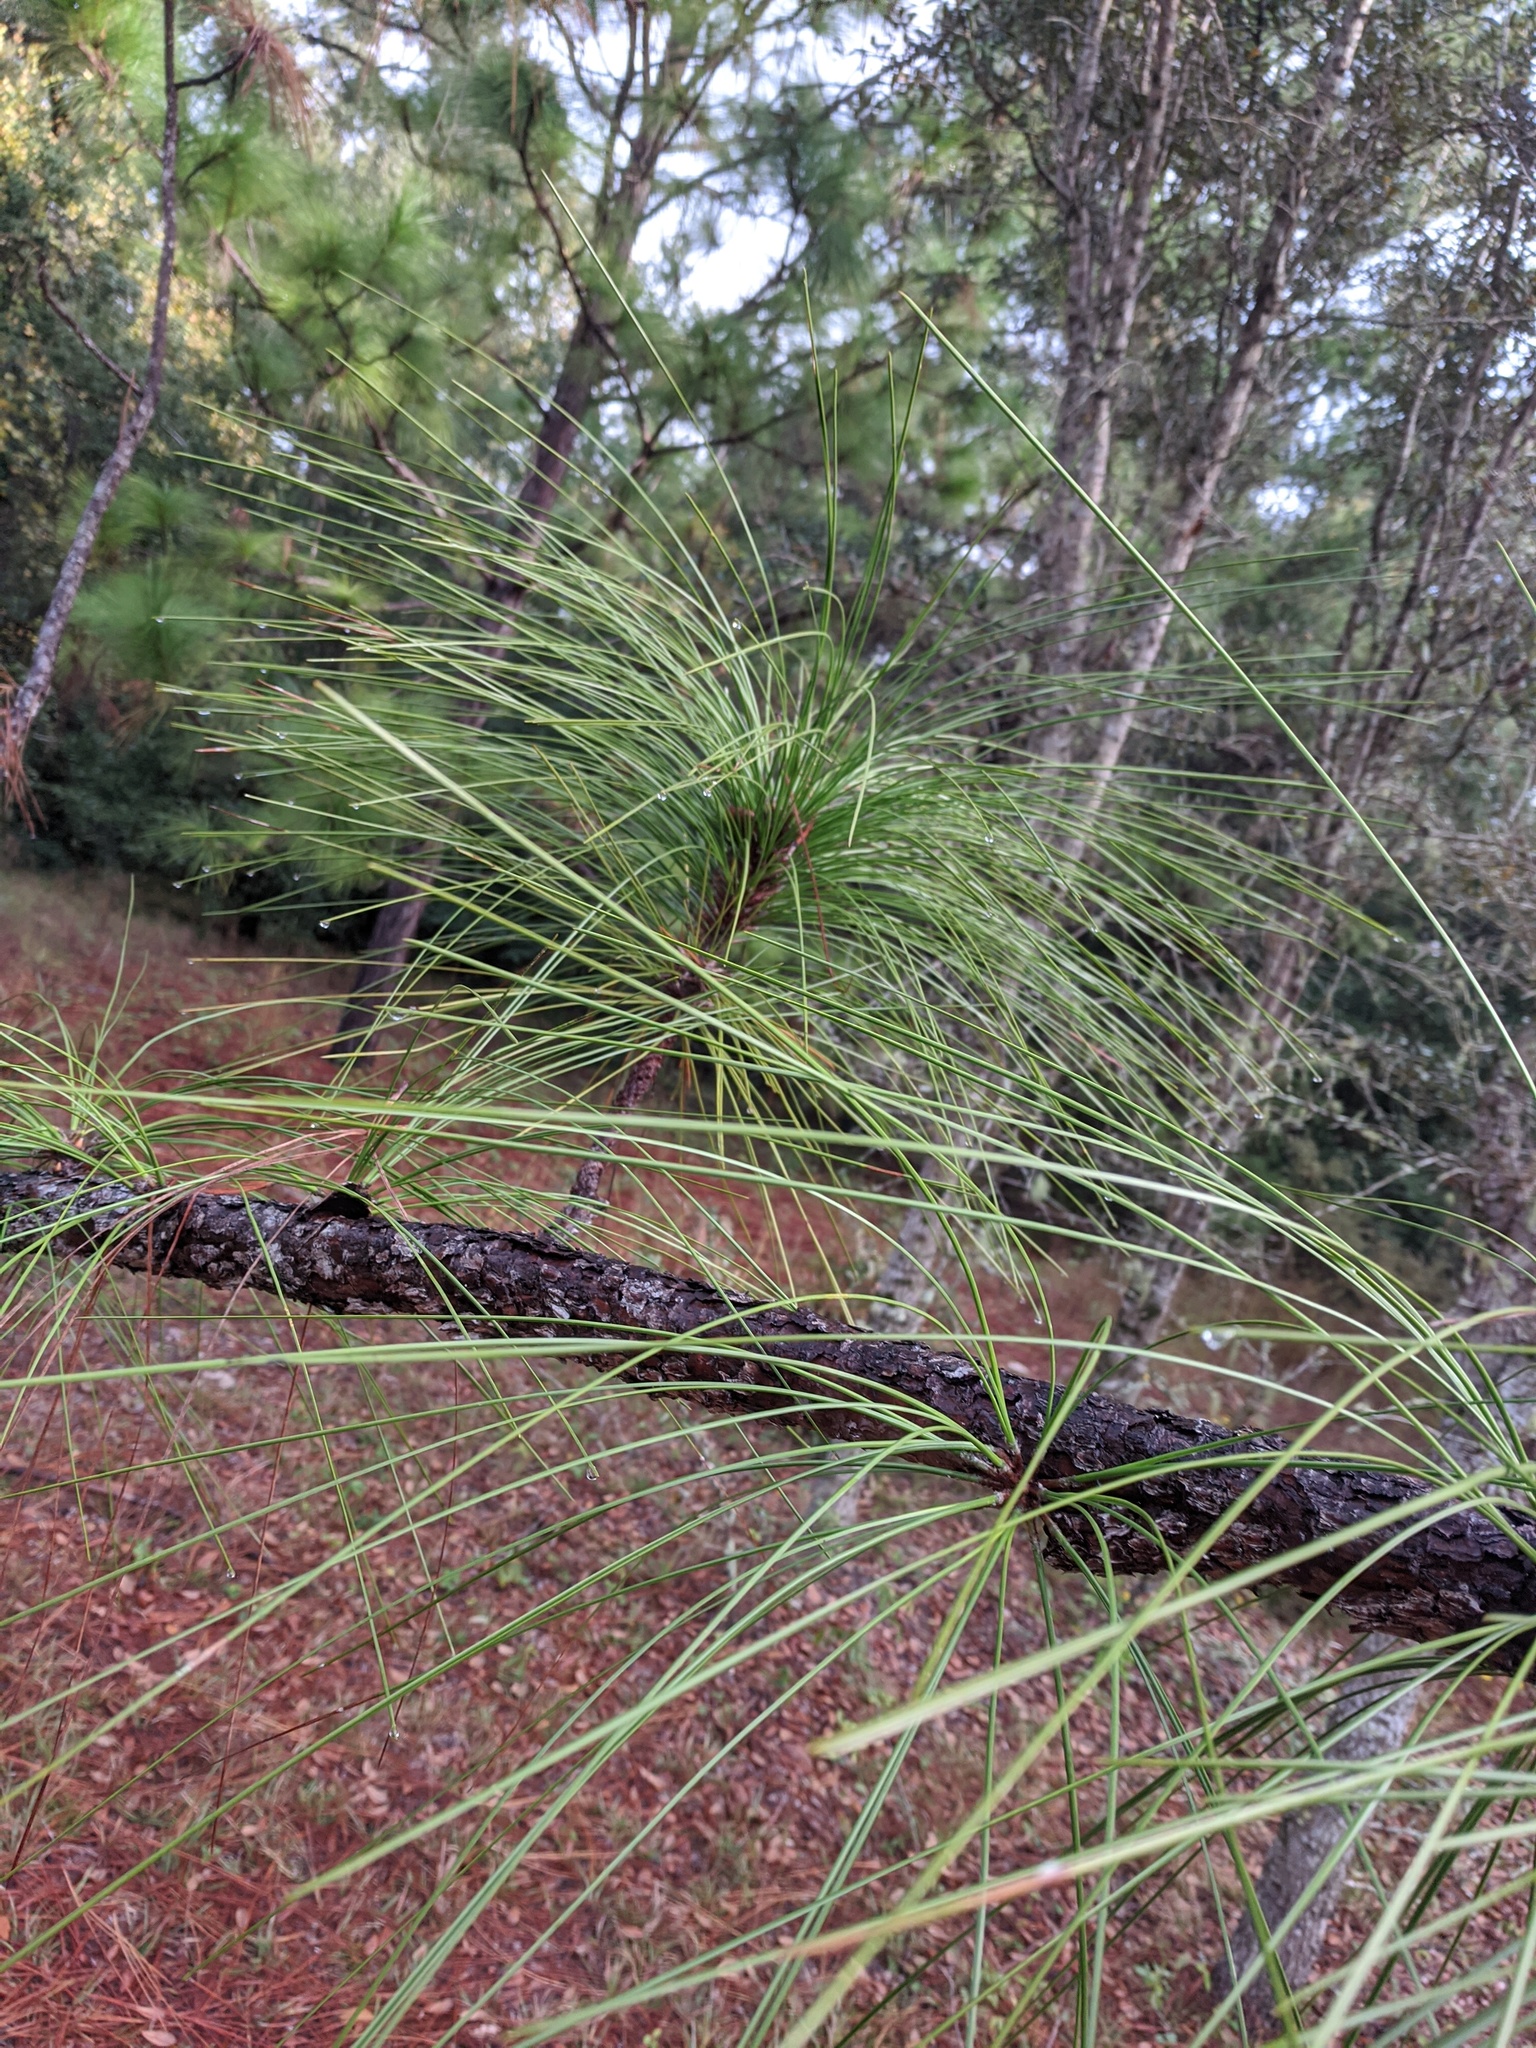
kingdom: Plantae
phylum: Tracheophyta
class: Pinopsida
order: Pinales
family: Pinaceae
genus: Pinus
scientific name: Pinus palustris
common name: Longleaf pine
